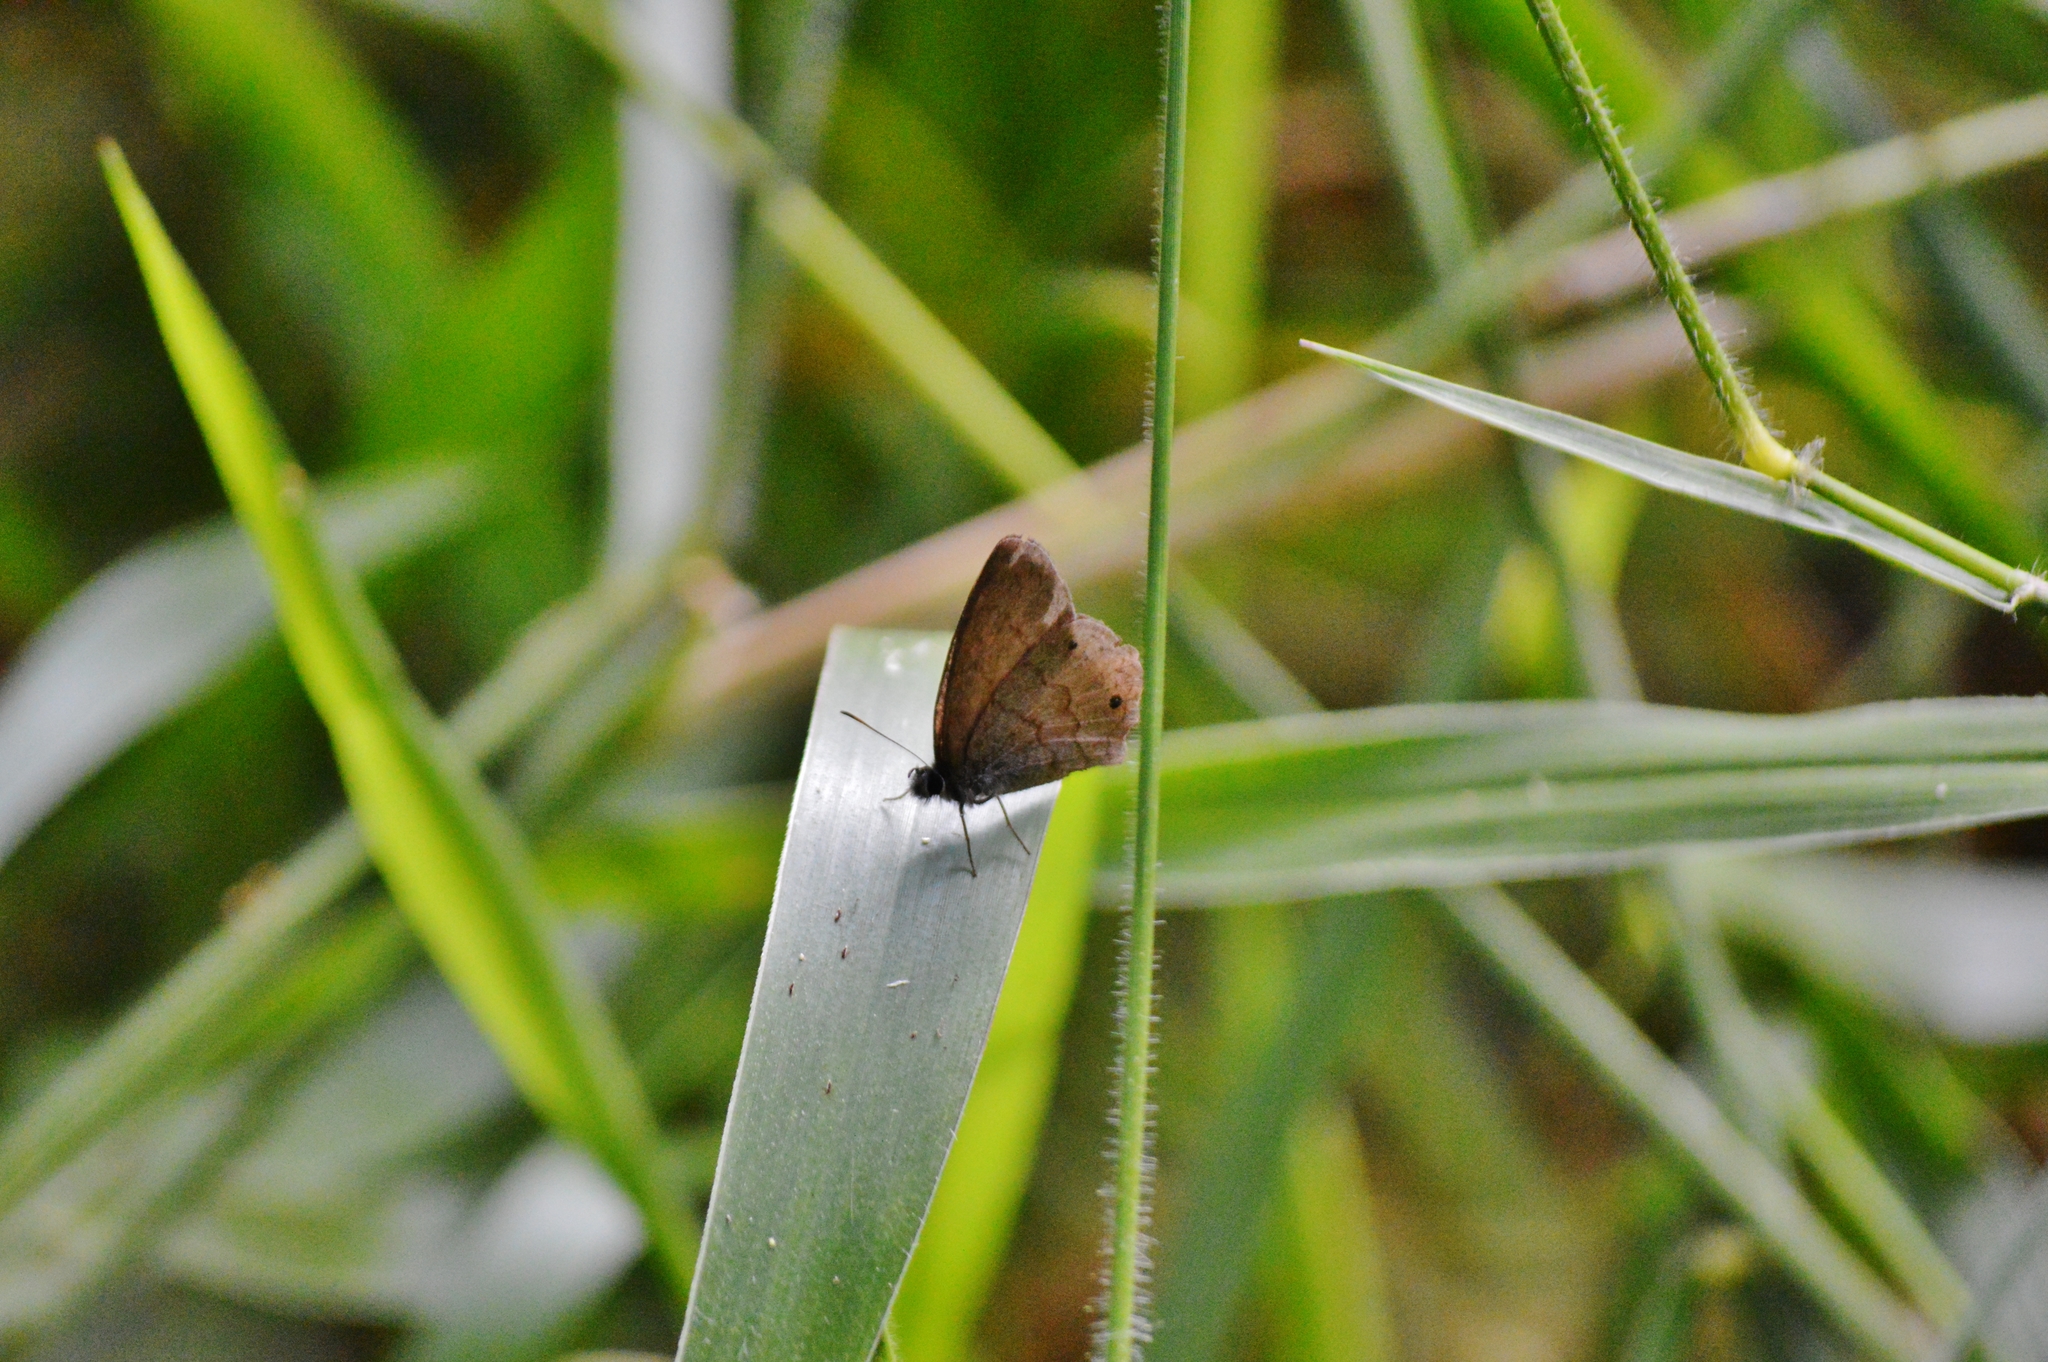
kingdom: Animalia
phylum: Arthropoda
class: Insecta
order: Lepidoptera
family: Nymphalidae
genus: Euptychia
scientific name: Euptychia Cissia eous
